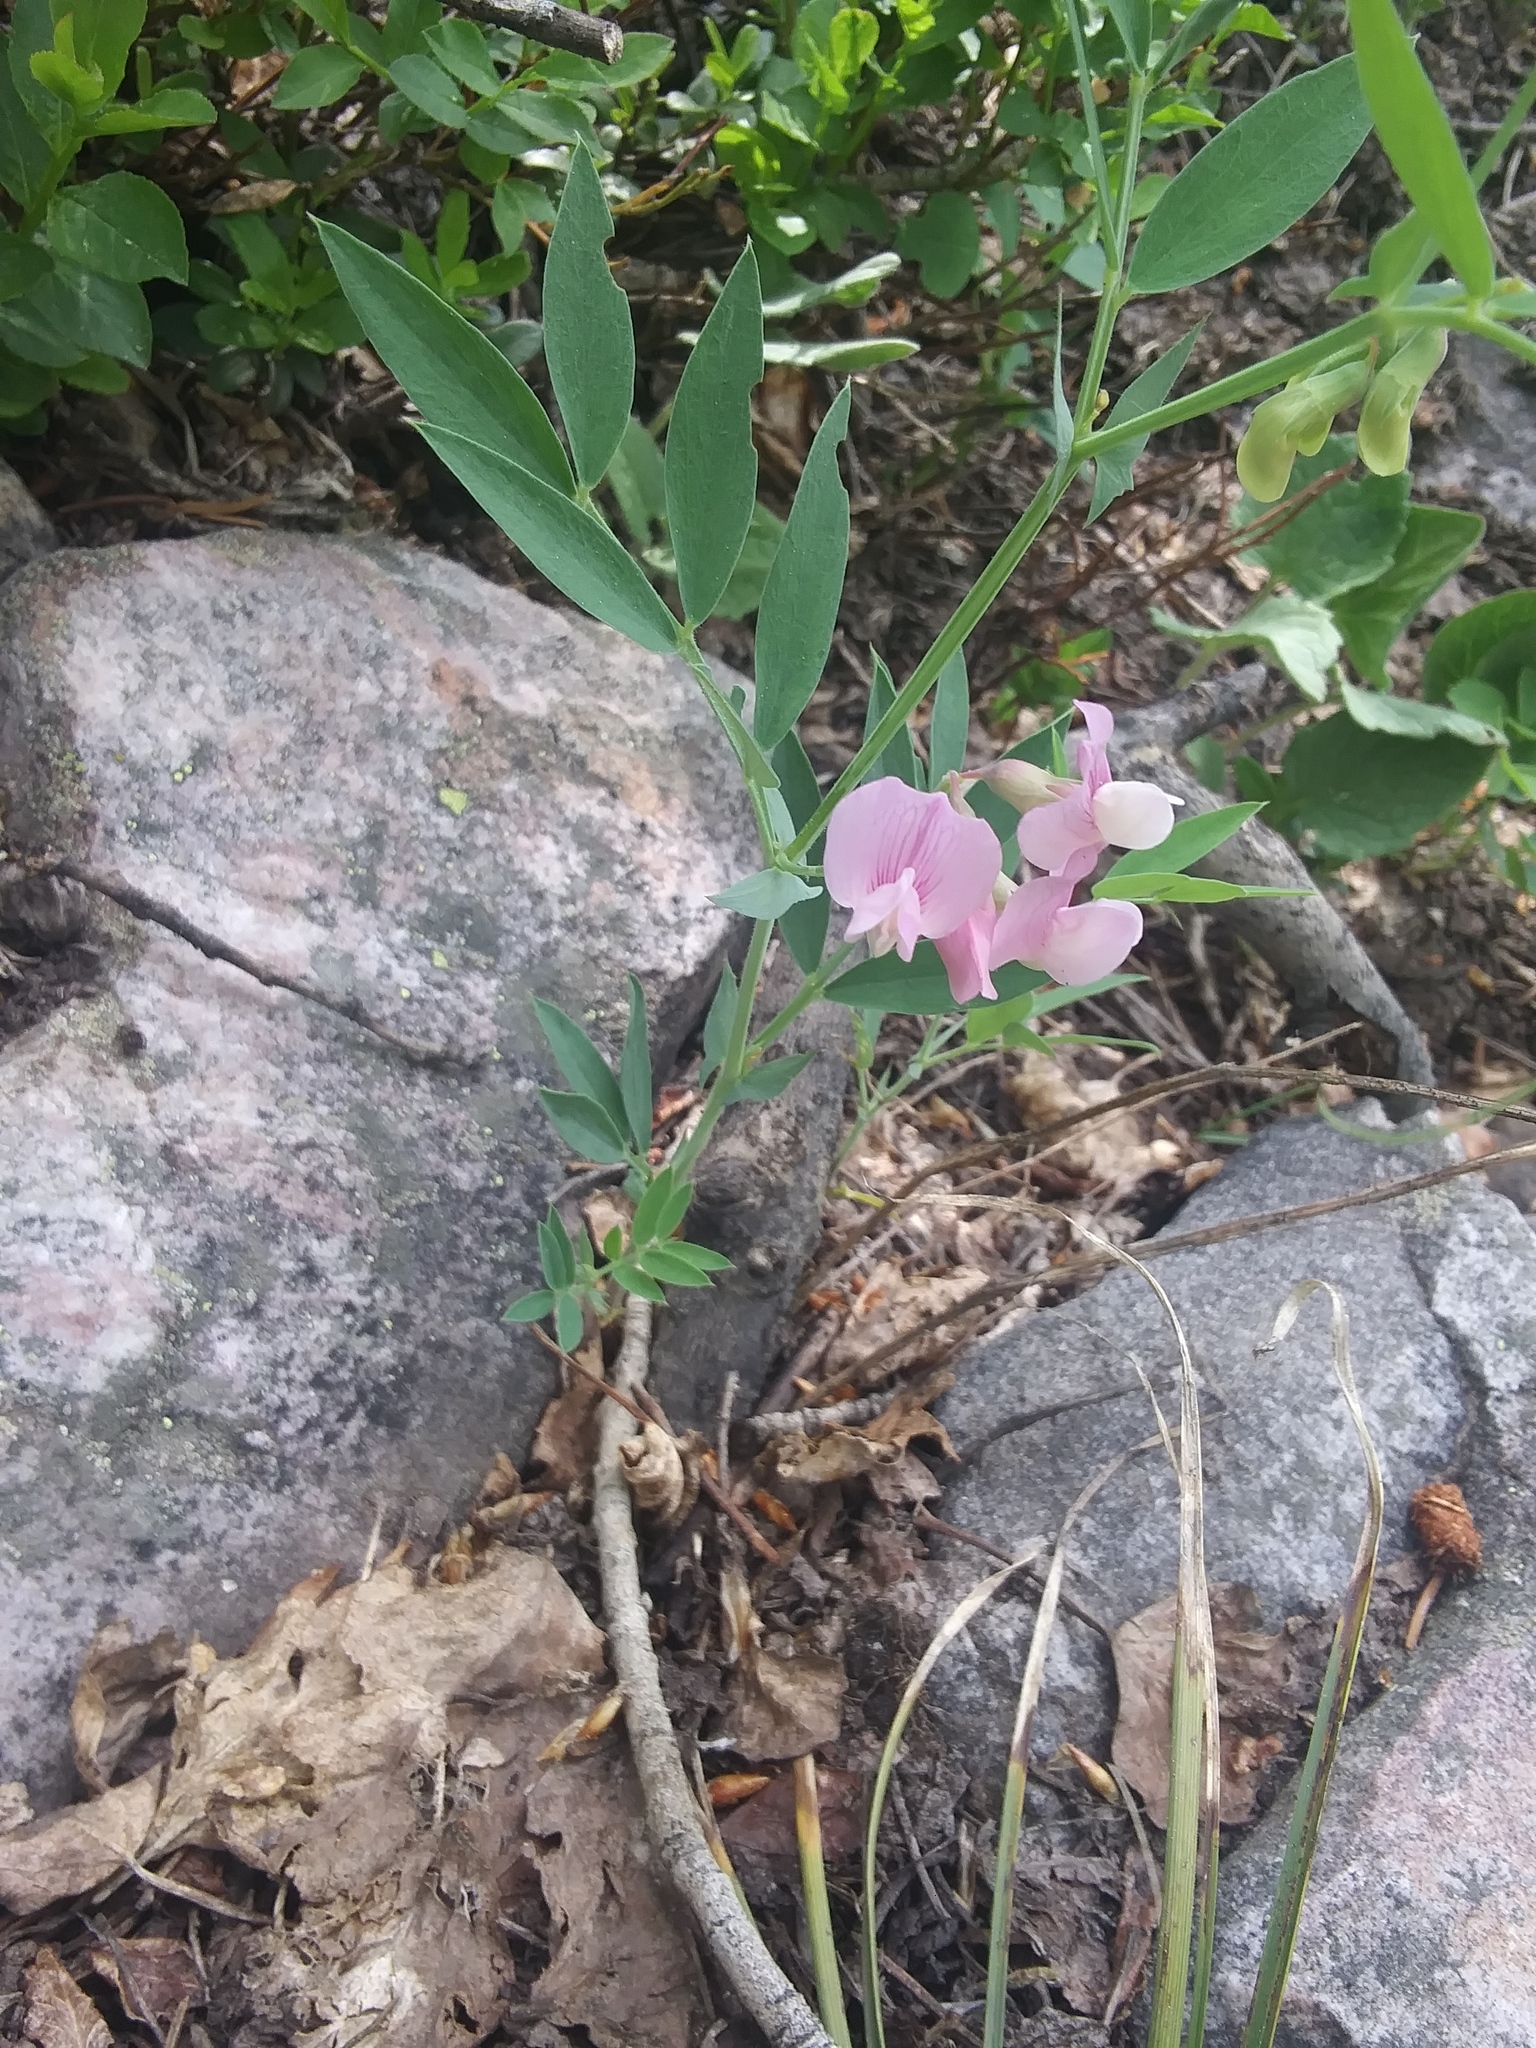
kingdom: Plantae
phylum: Tracheophyta
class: Magnoliopsida
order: Fabales
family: Fabaceae
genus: Lathyrus
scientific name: Lathyrus lanszwertii
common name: Lanszwert's vetchling
